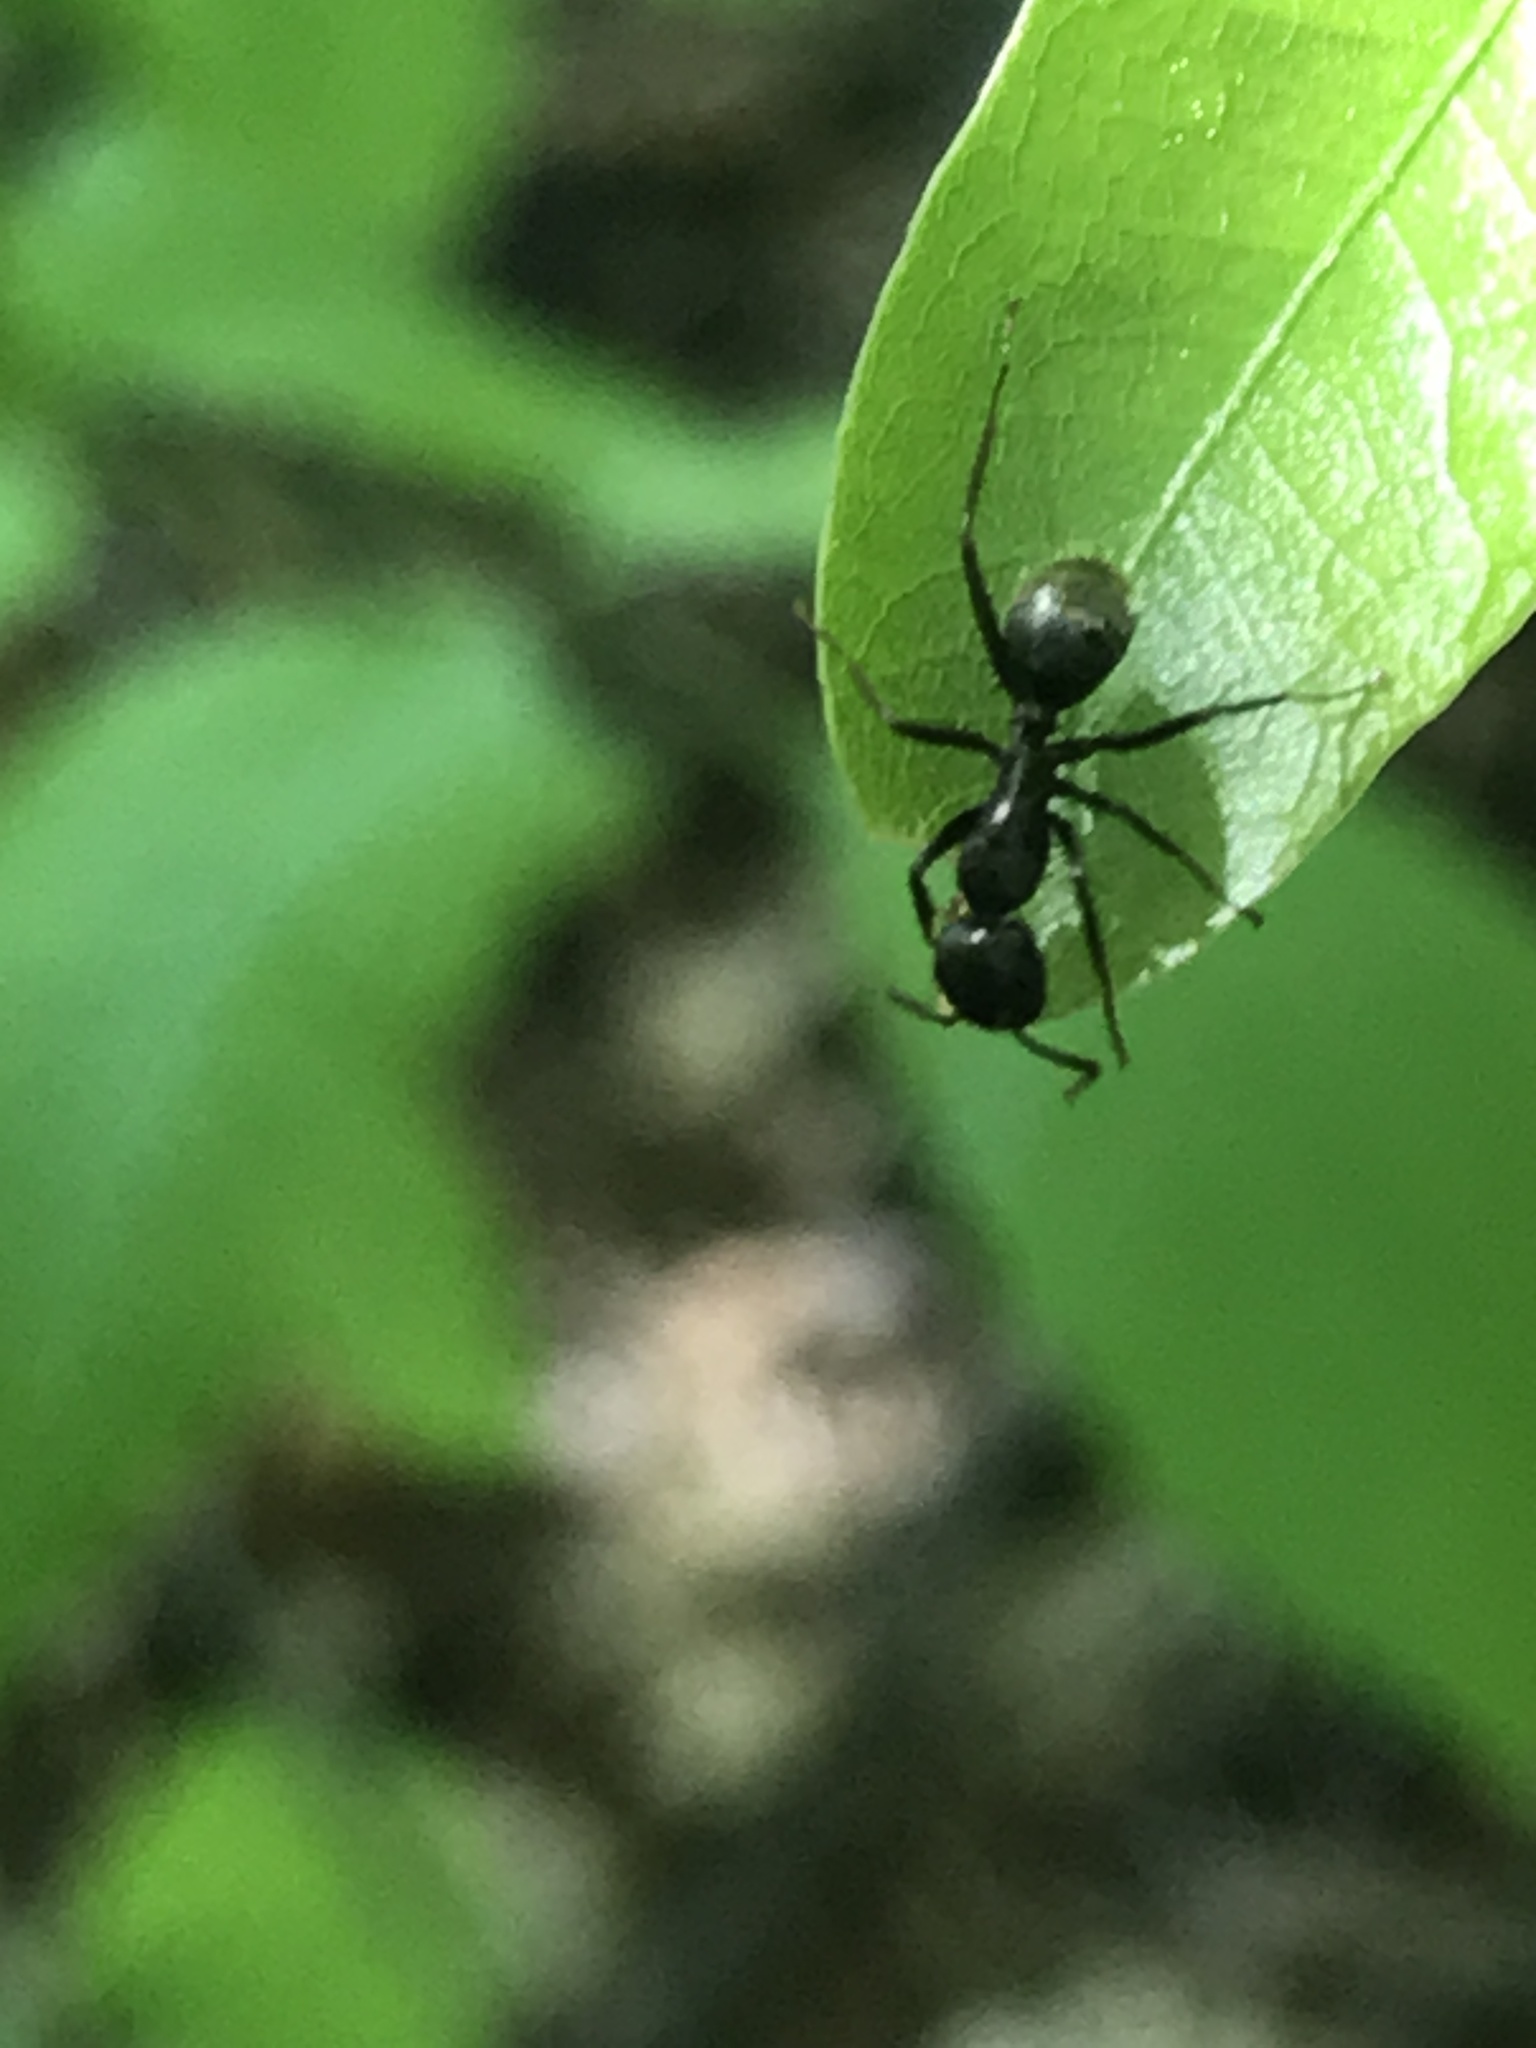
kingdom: Animalia
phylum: Arthropoda
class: Insecta
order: Hymenoptera
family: Formicidae
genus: Camponotus
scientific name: Camponotus chromaiodes
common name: Red carpenter ant
